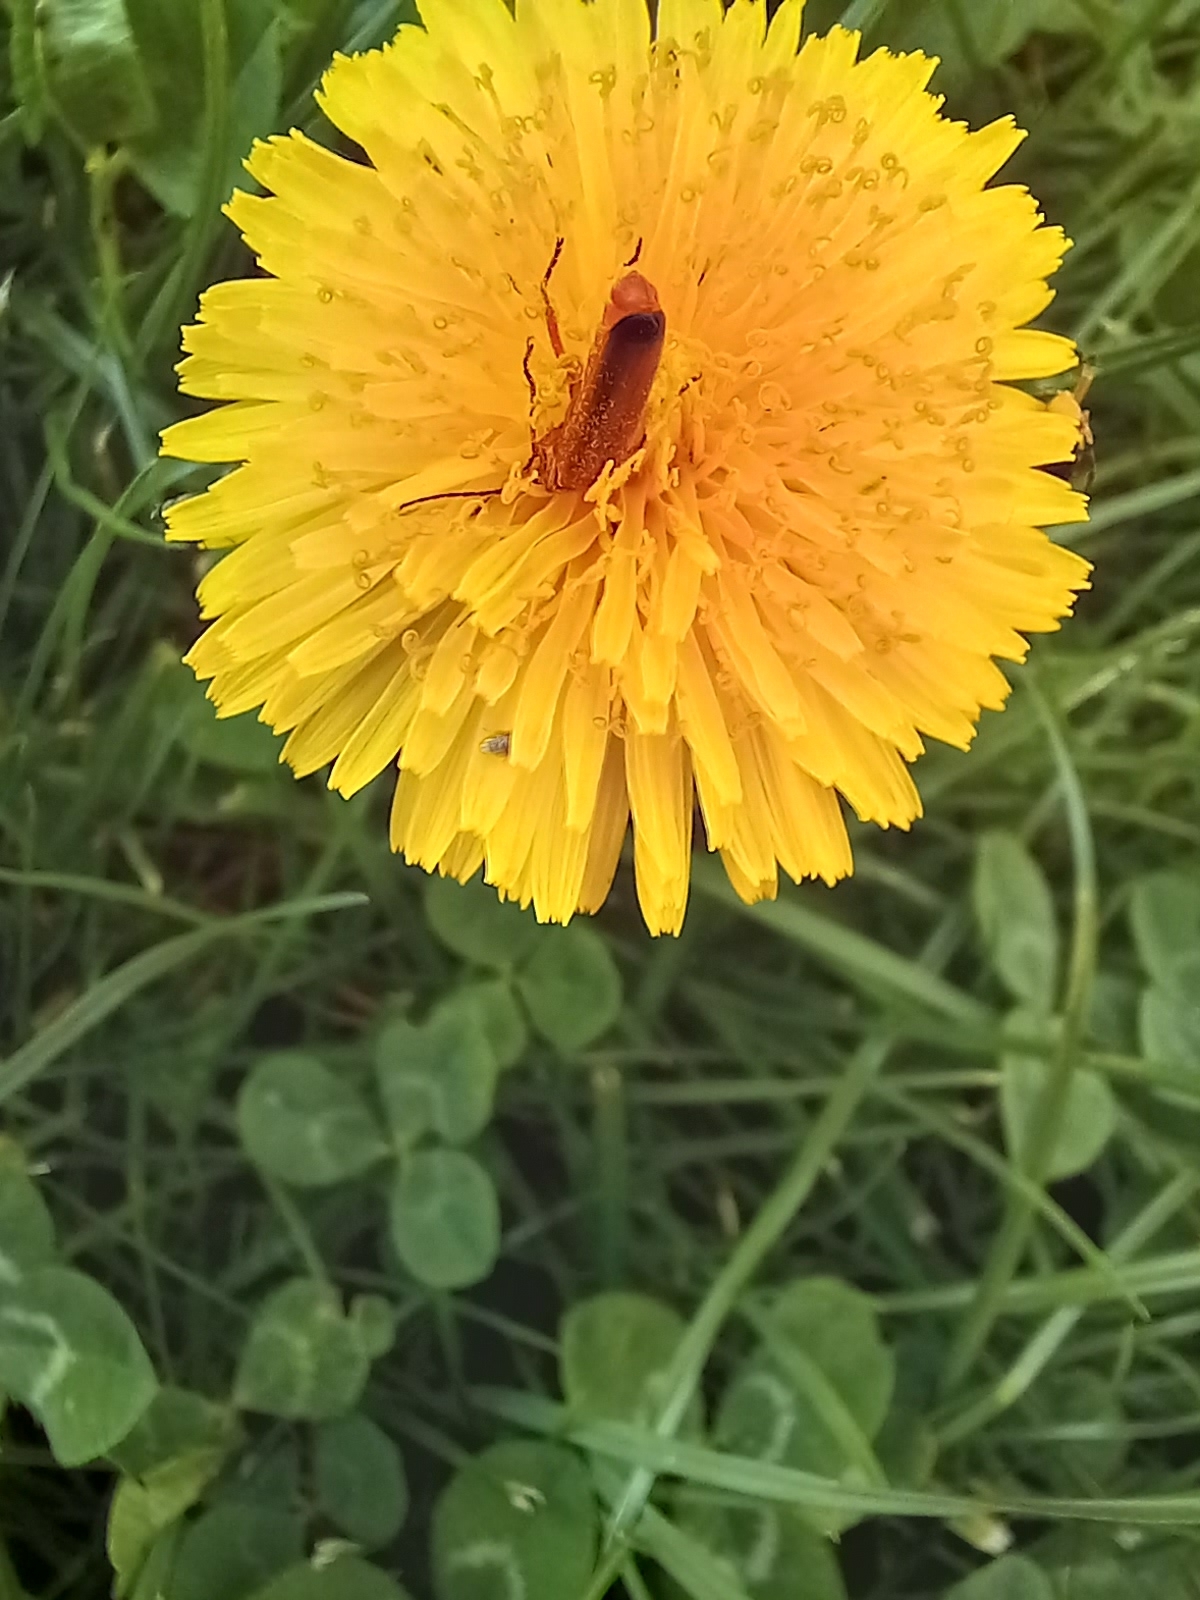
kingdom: Animalia
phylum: Arthropoda
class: Insecta
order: Coleoptera
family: Cantharidae
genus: Rhagonycha
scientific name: Rhagonycha fulva
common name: Common red soldier beetle
